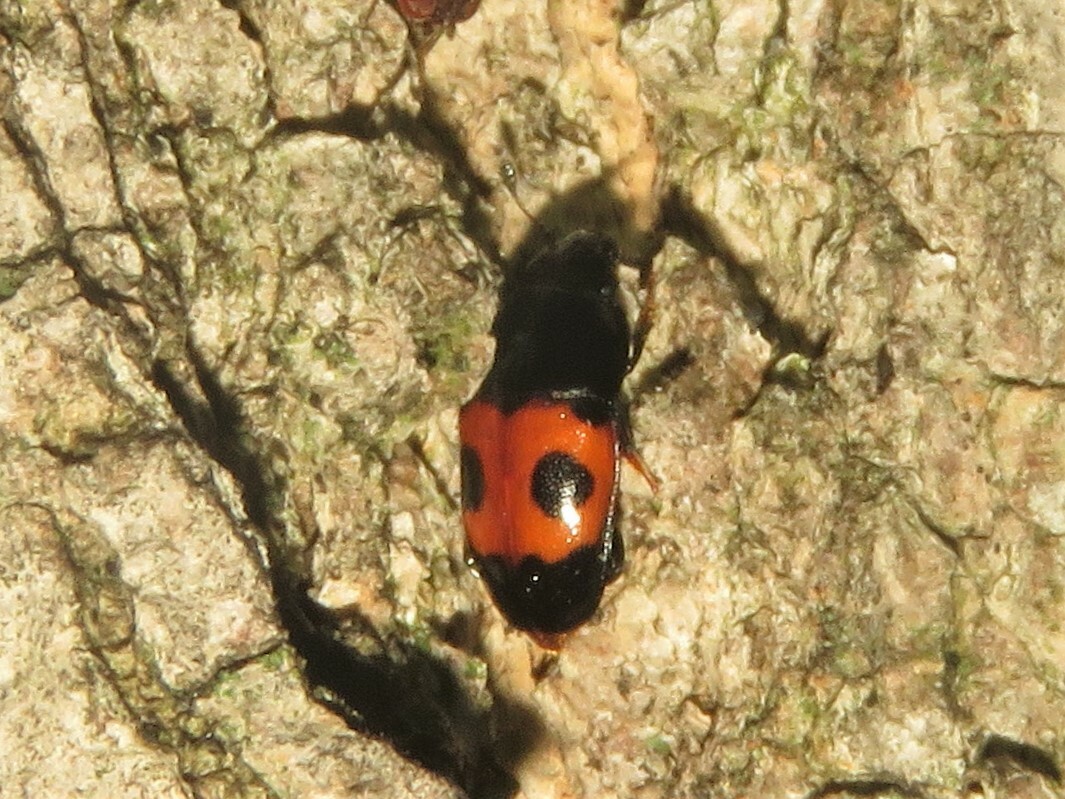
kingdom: Animalia
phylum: Arthropoda
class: Insecta
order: Coleoptera
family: Nitidulidae
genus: Glischrochilus
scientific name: Glischrochilus sanguinolentus
